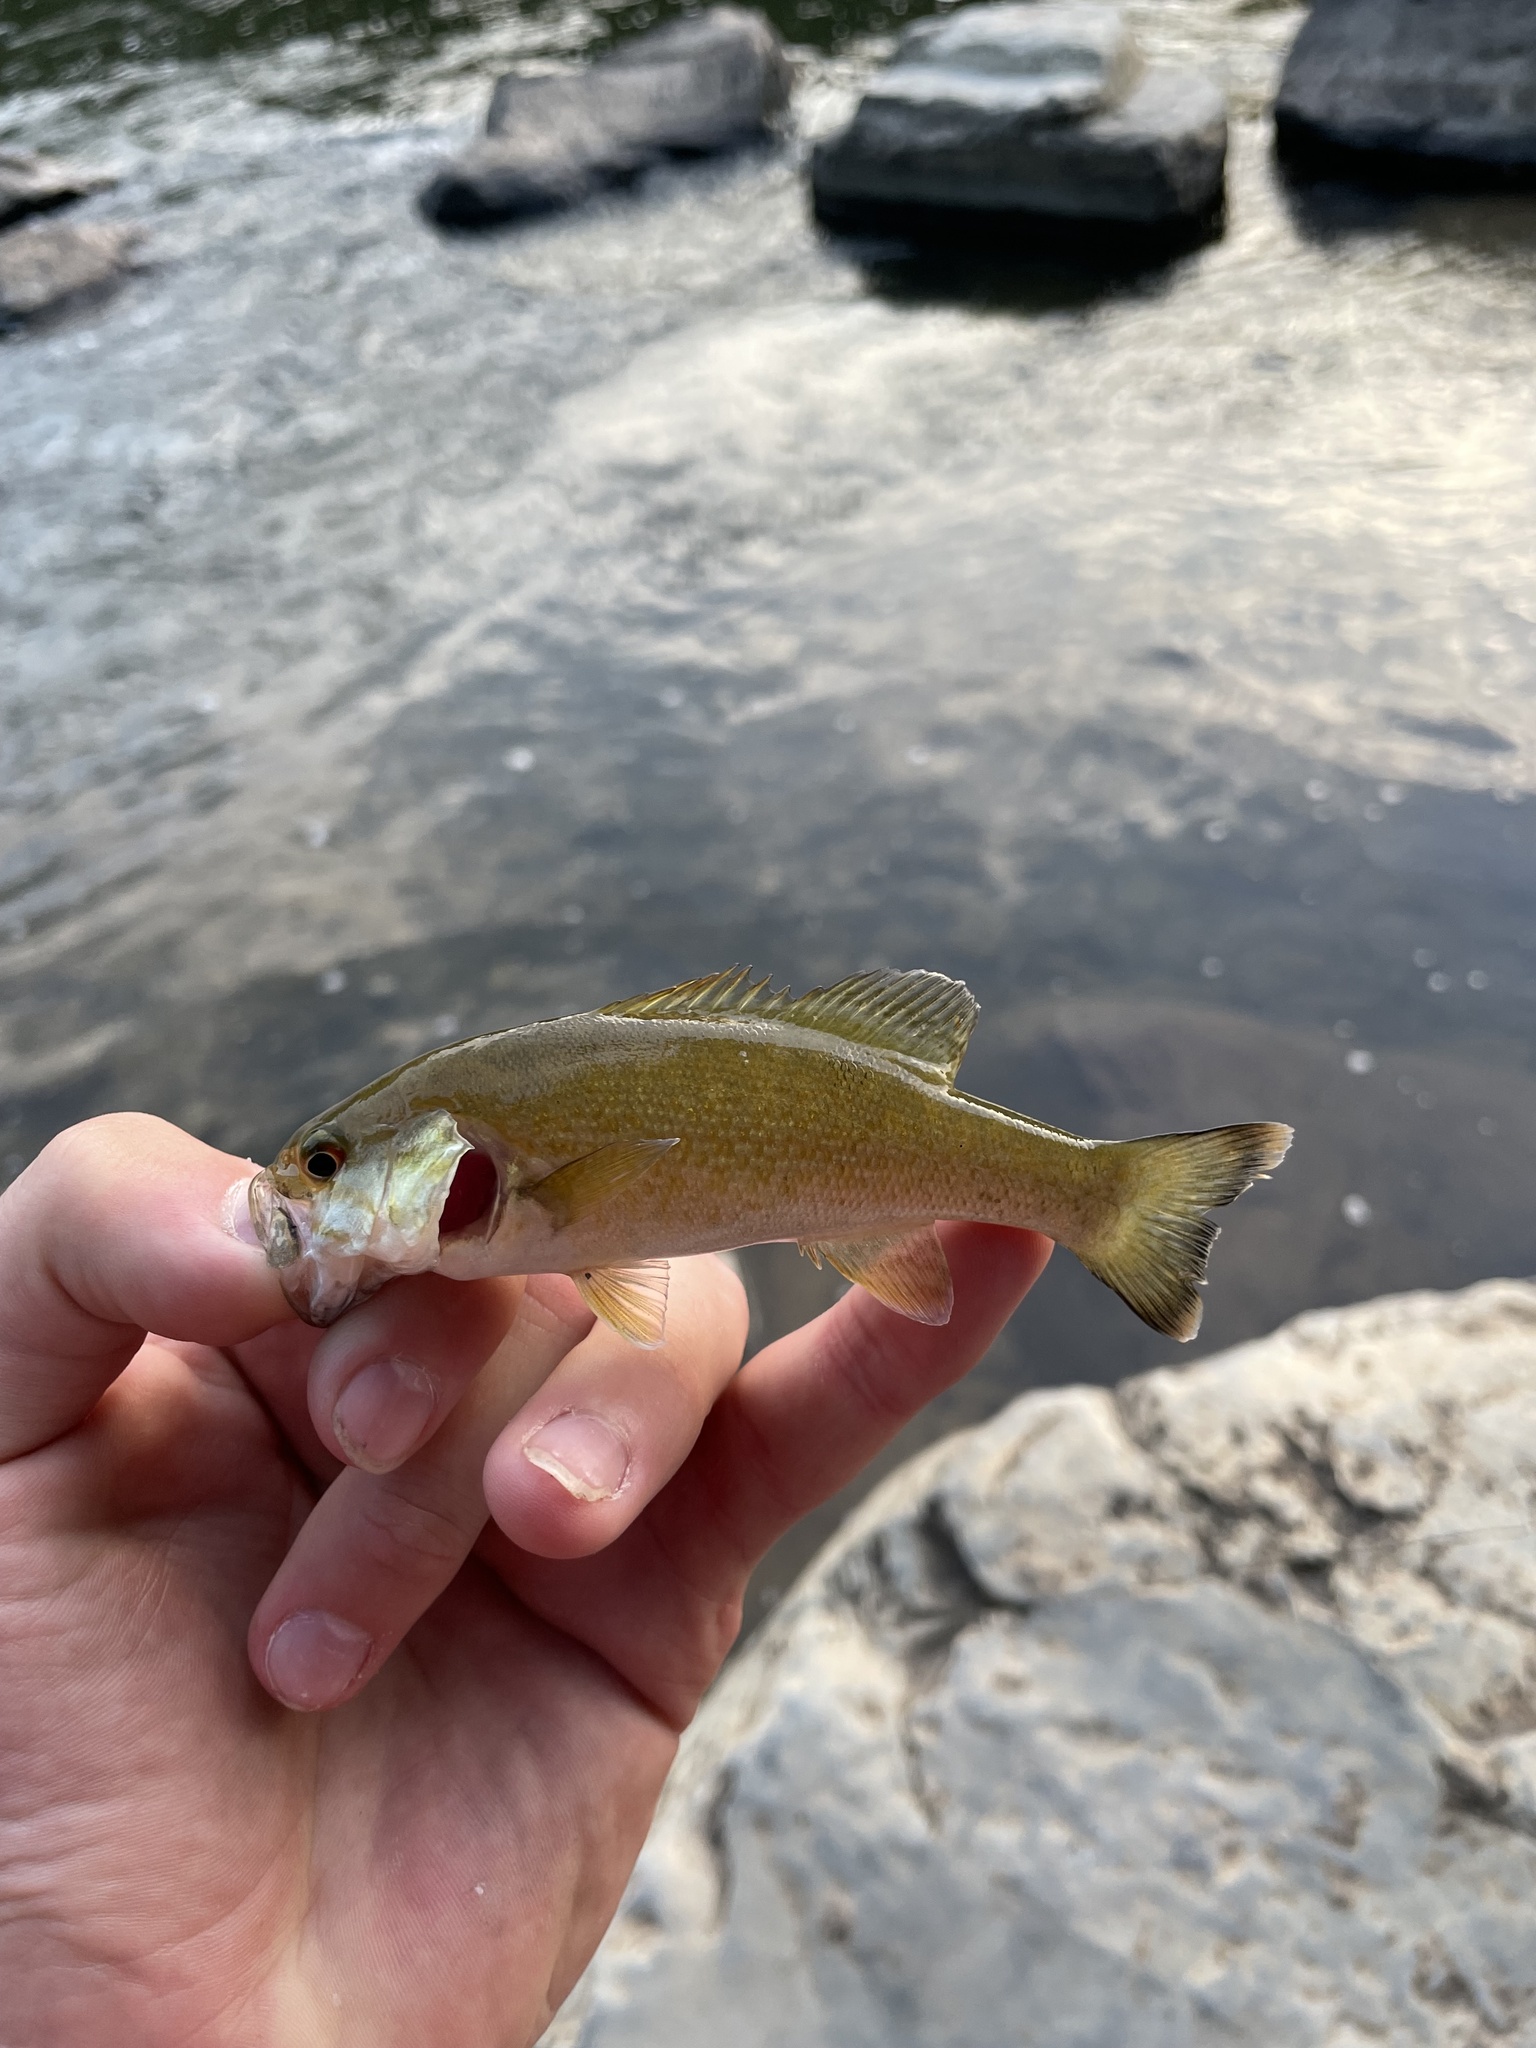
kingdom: Animalia
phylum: Chordata
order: Perciformes
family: Centrarchidae
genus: Micropterus
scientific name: Micropterus dolomieu
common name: Smallmouth bass
